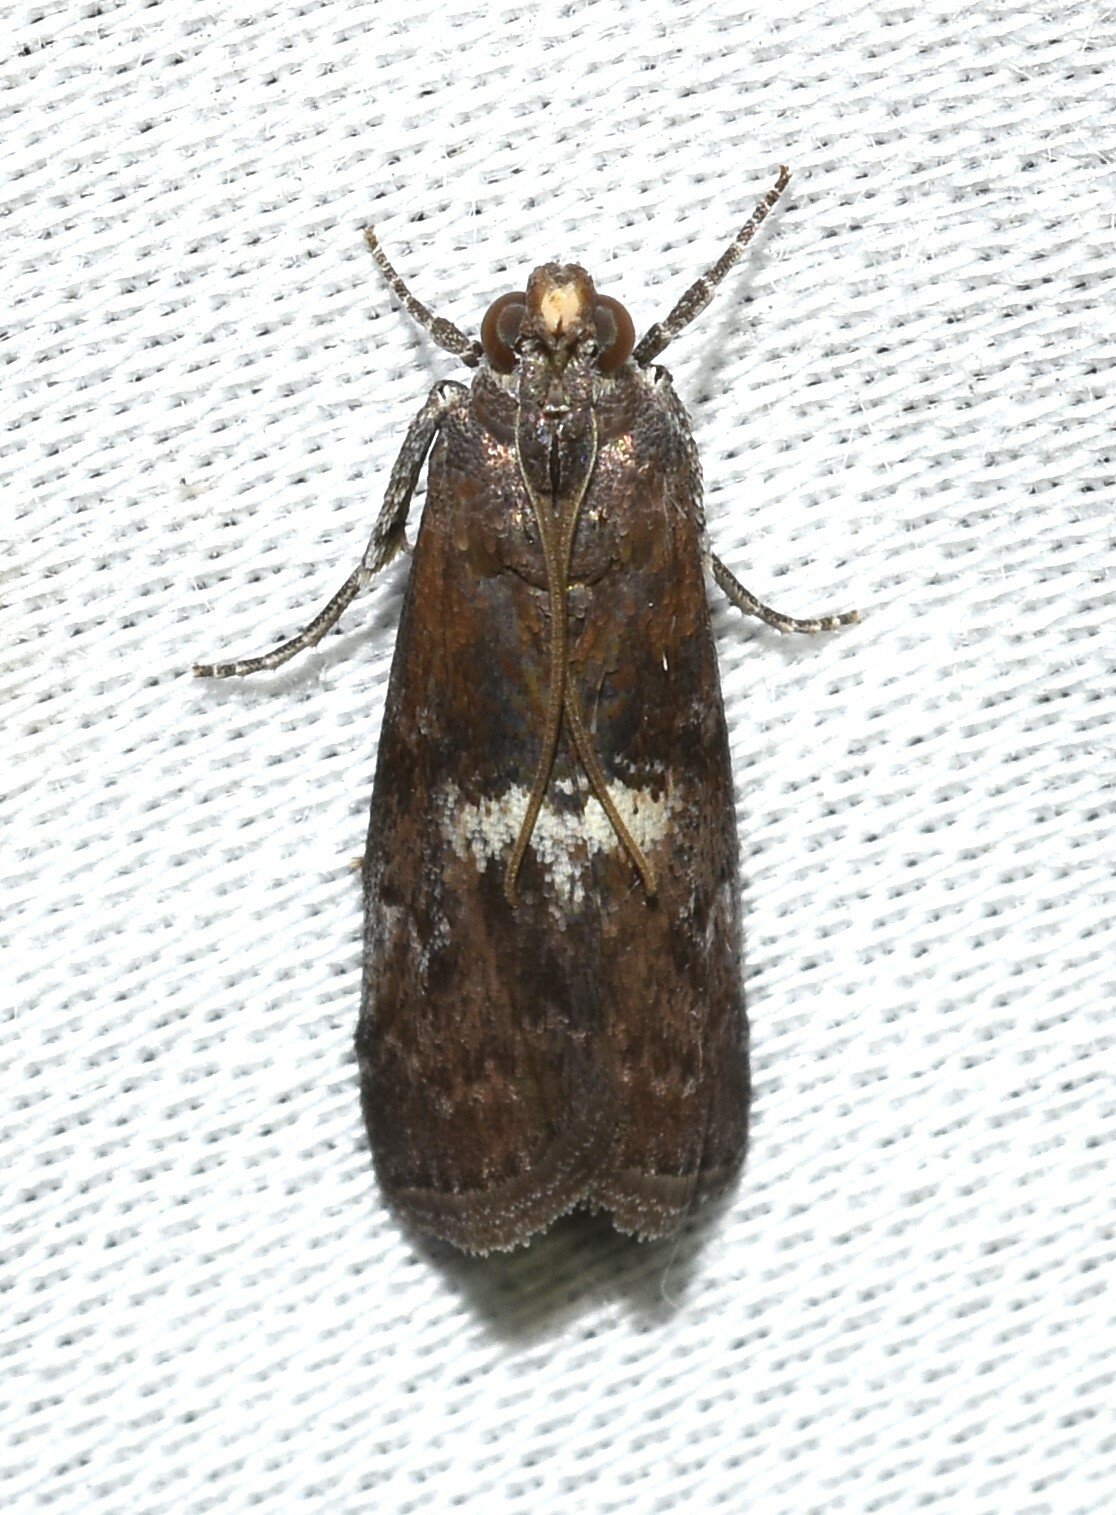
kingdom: Animalia
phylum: Arthropoda
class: Insecta
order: Lepidoptera
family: Pyralidae
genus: Salebriaria
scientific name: Salebriaria engeli
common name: Engel's salebriaria moth
